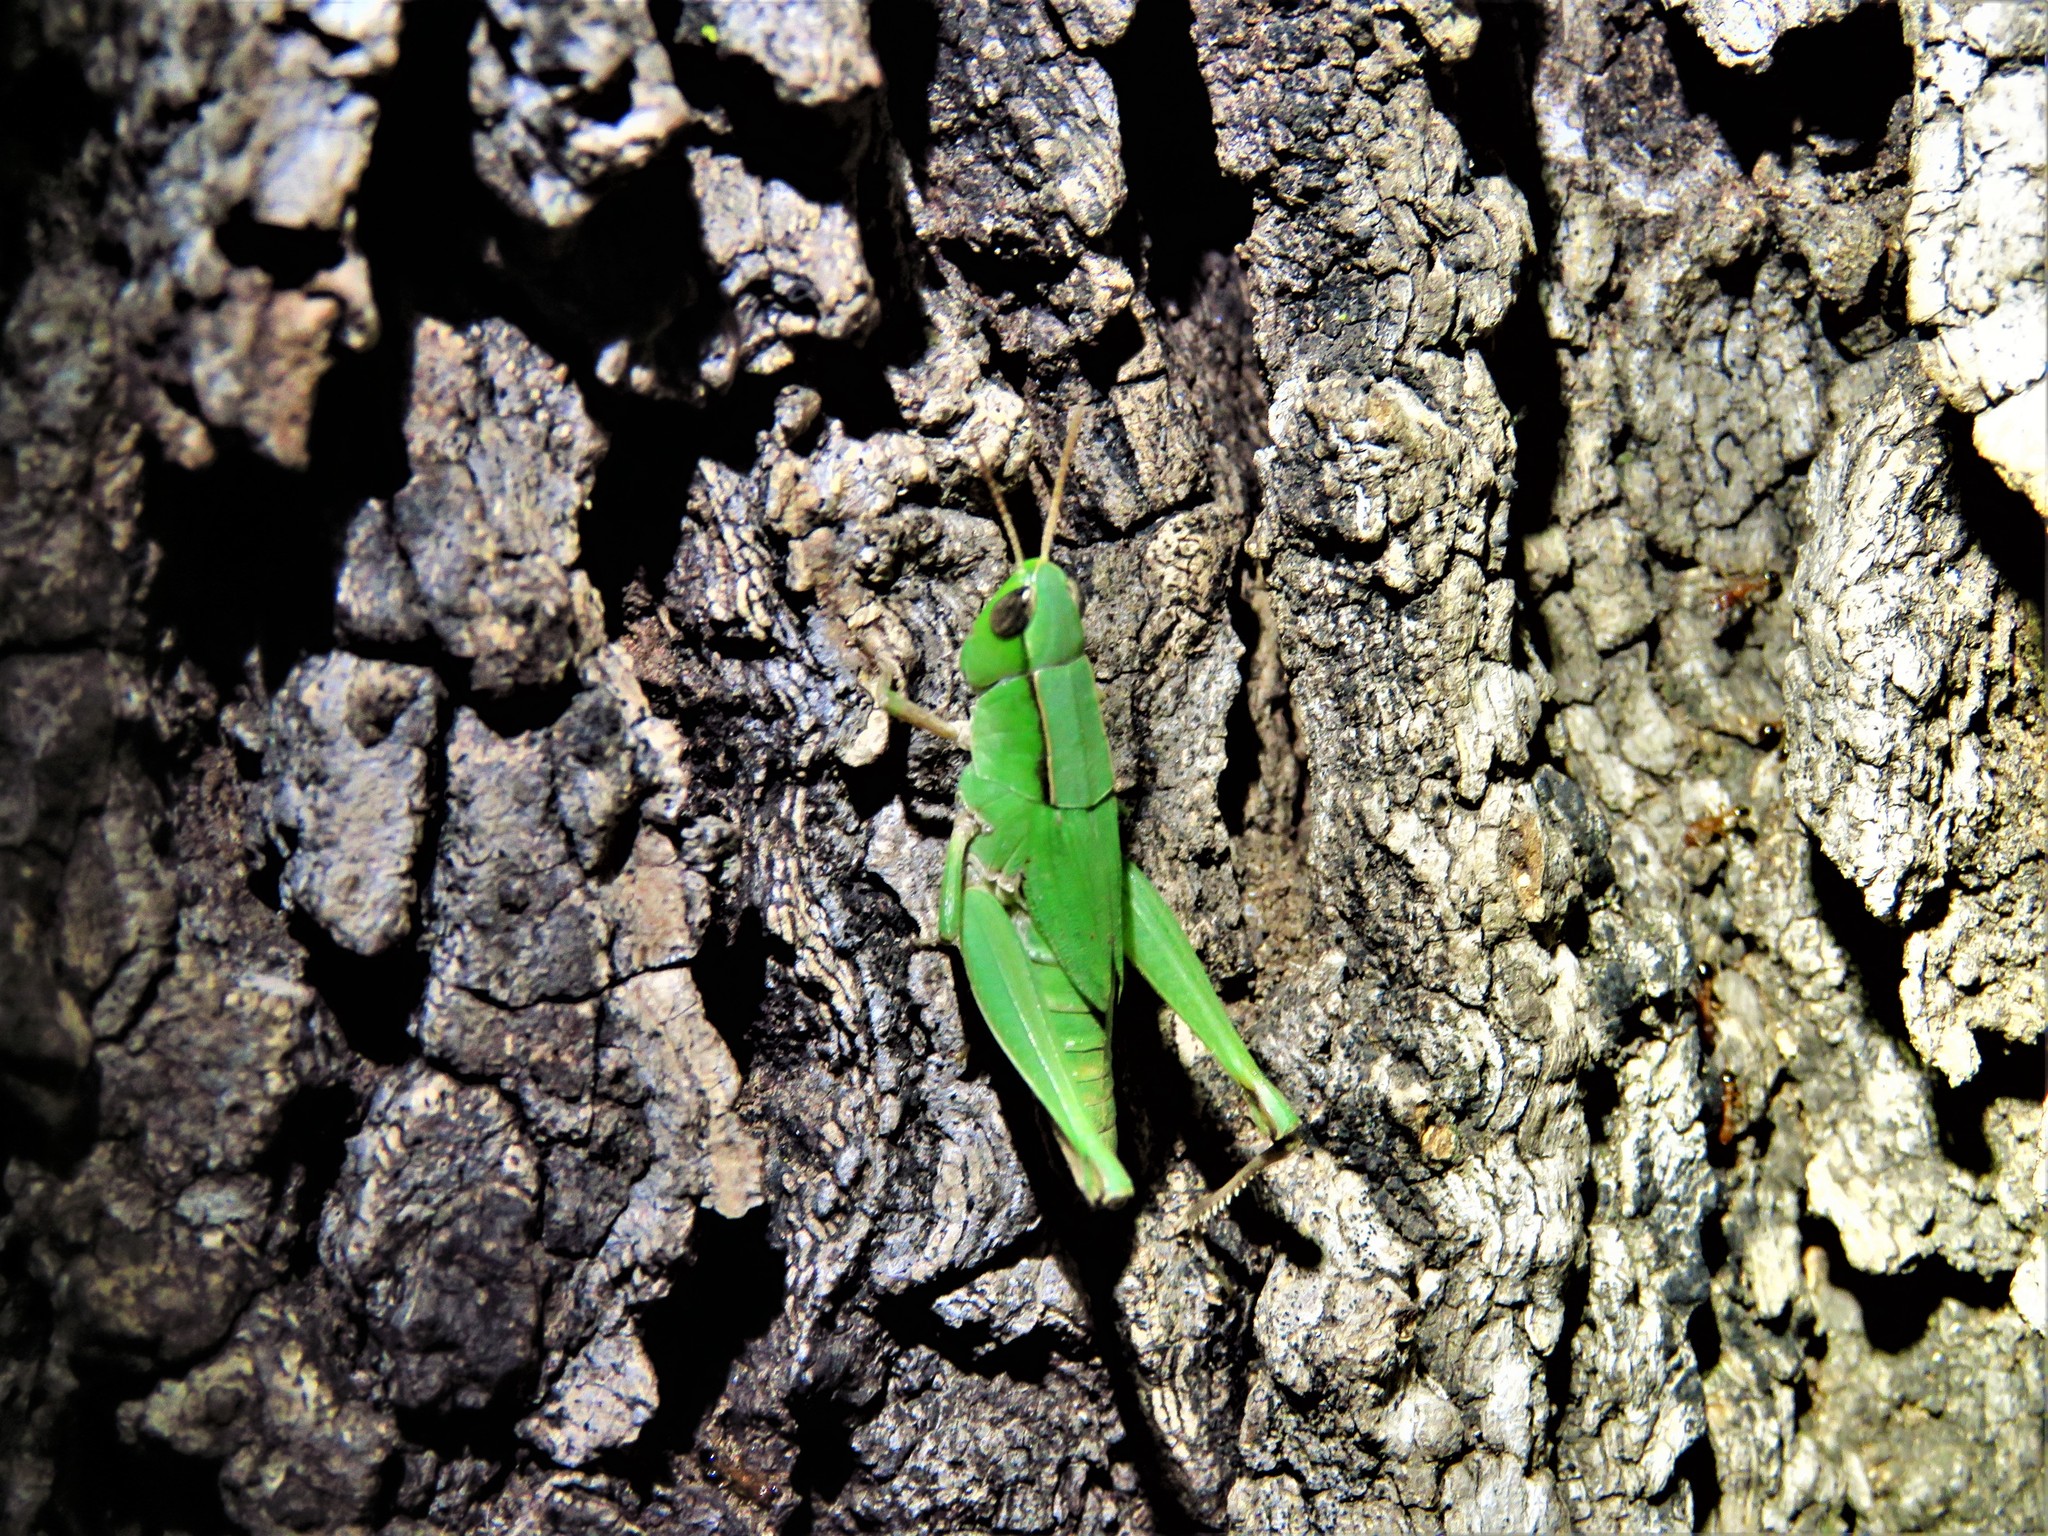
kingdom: Animalia
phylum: Arthropoda
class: Insecta
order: Orthoptera
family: Acrididae
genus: Dichromorpha
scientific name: Dichromorpha viridis
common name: Short-winged green grasshopper
